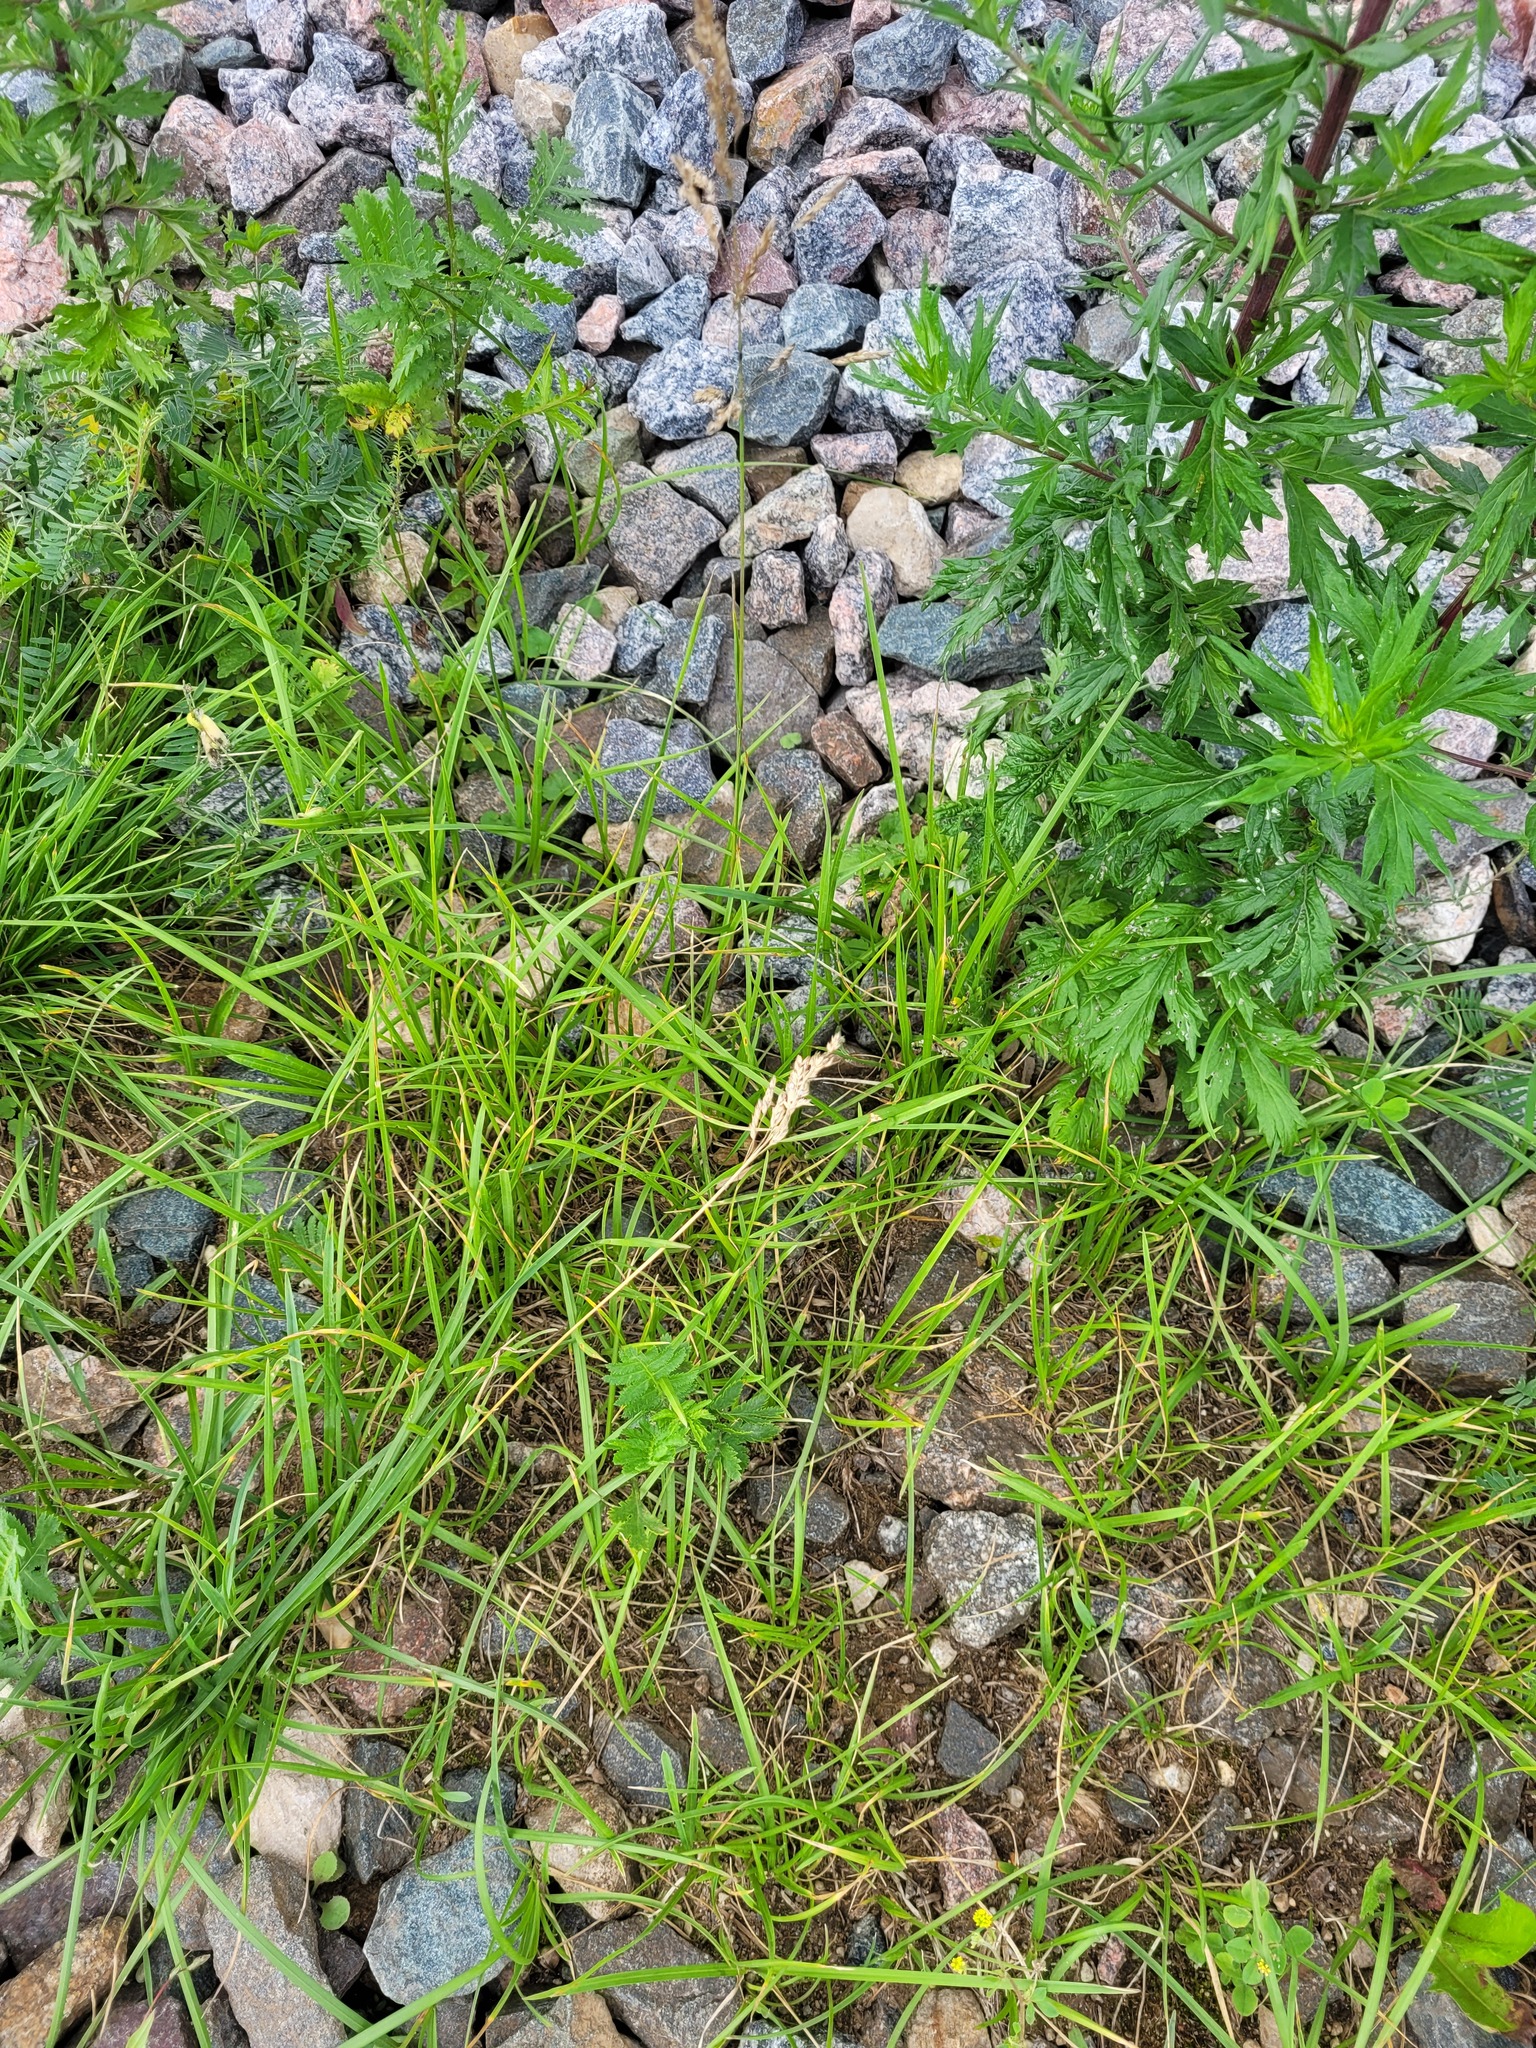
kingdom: Plantae
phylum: Tracheophyta
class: Liliopsida
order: Poales
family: Poaceae
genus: Poa
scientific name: Poa pratensis
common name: Kentucky bluegrass
